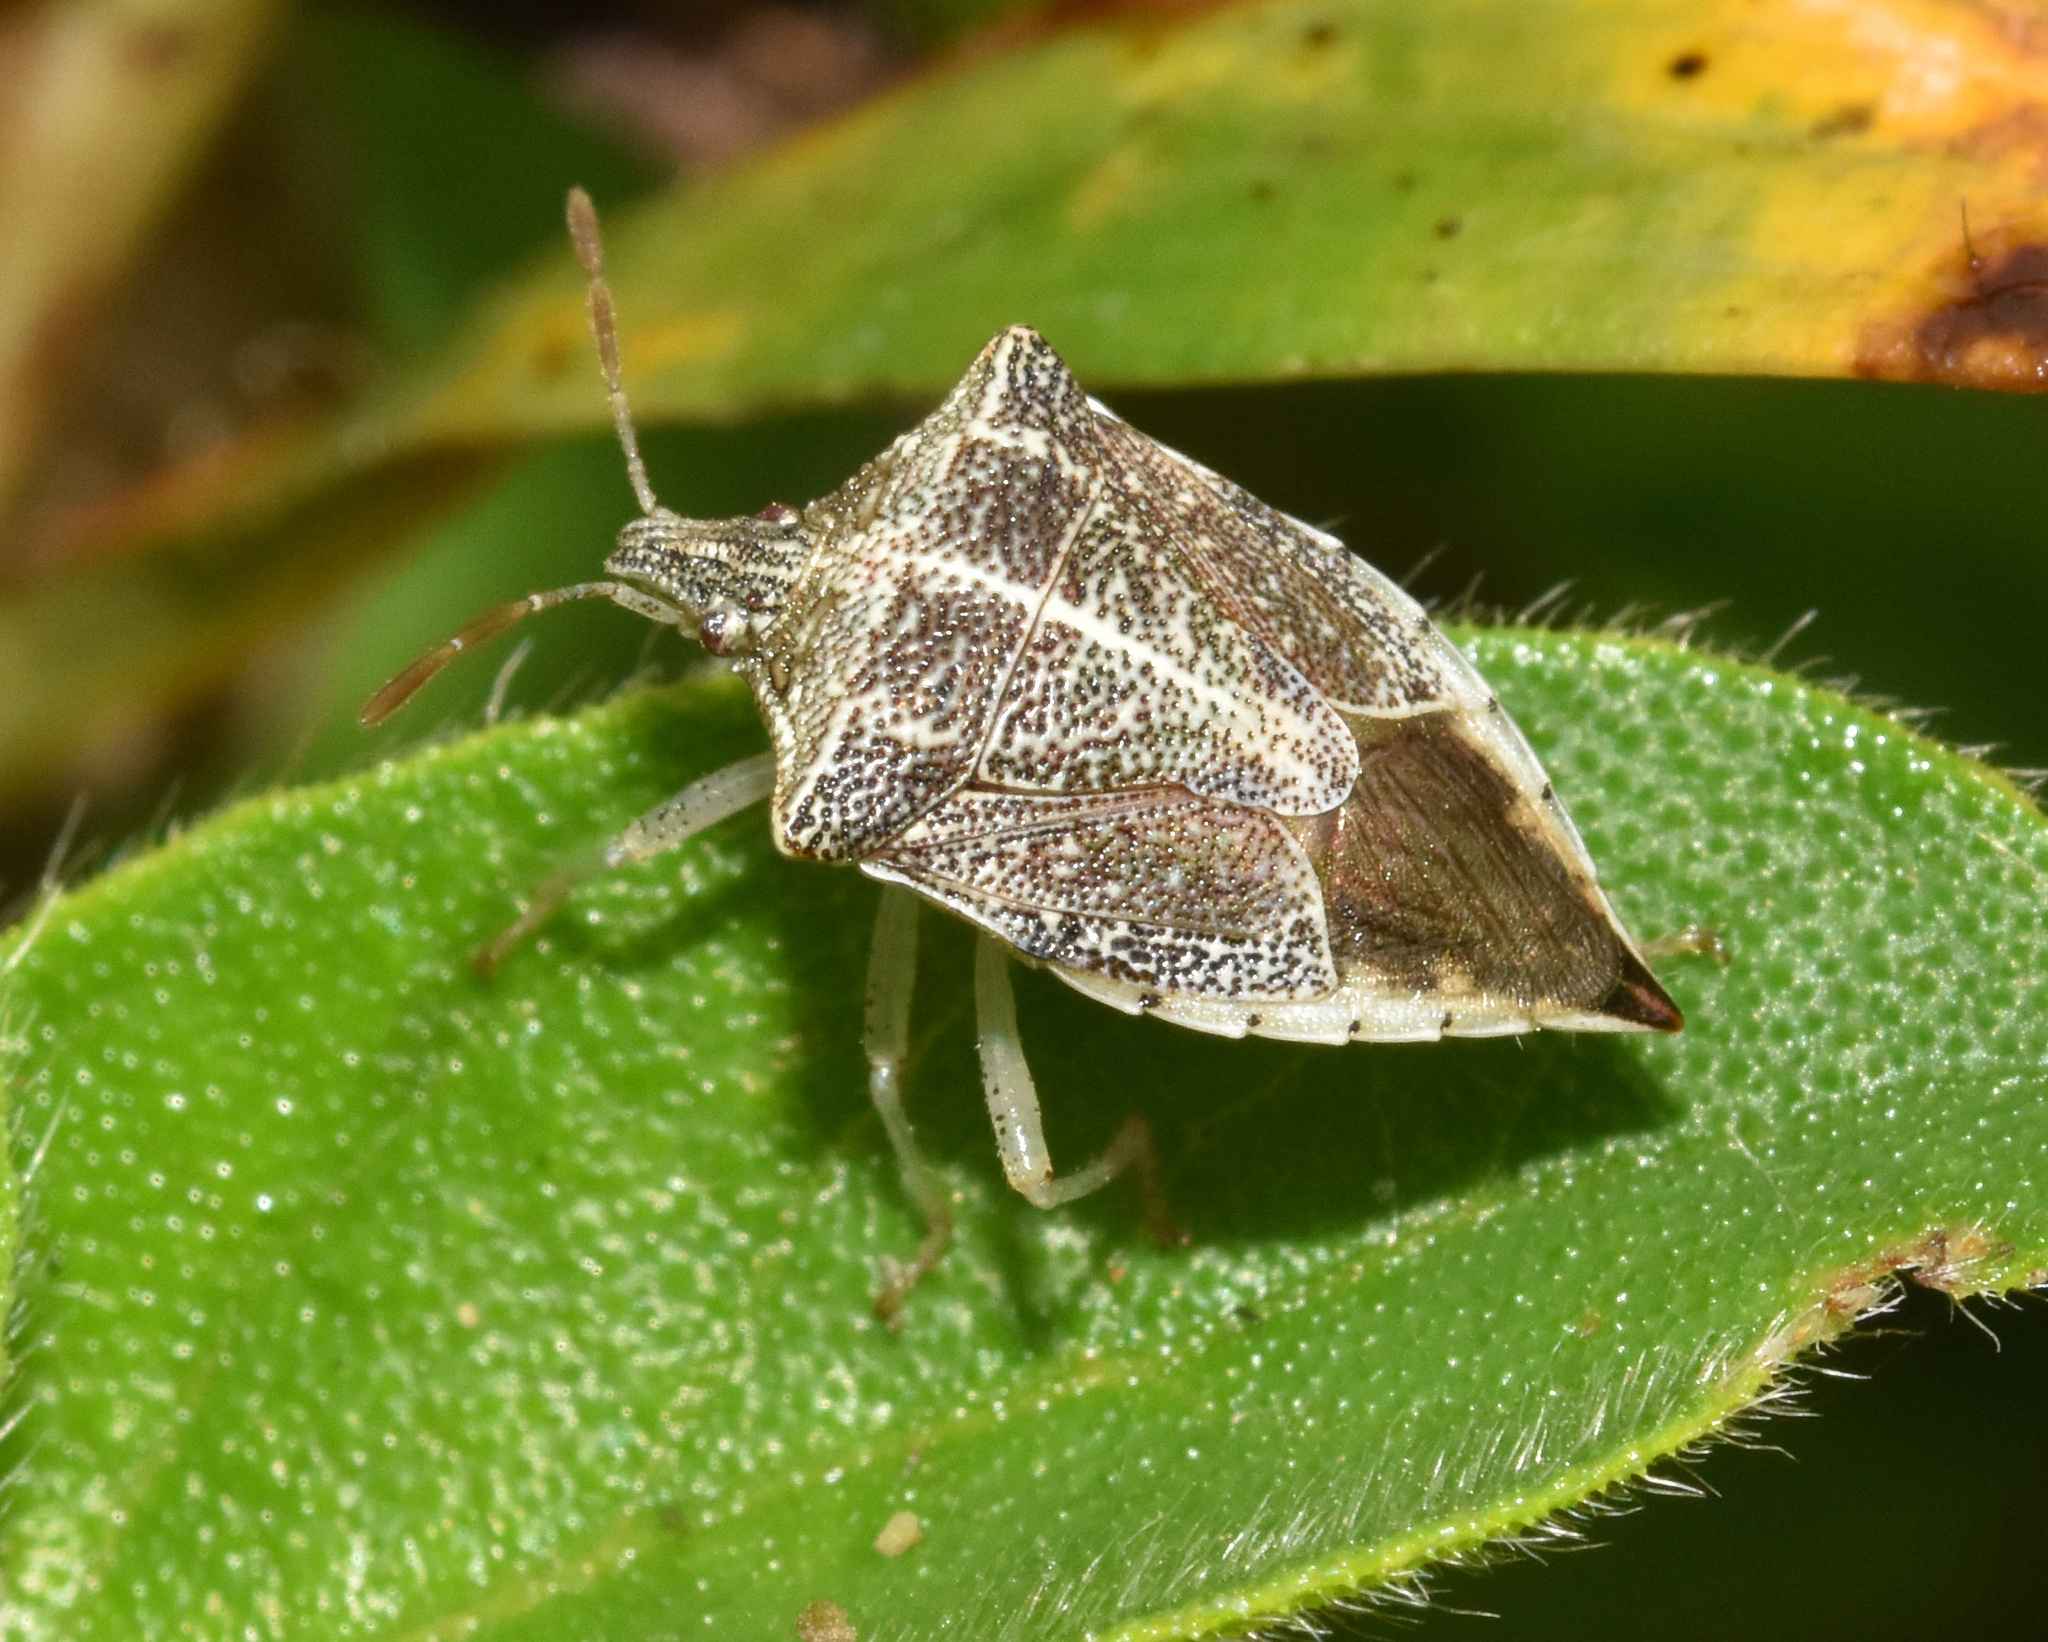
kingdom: Animalia
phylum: Arthropoda
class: Insecta
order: Hemiptera
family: Pentatomidae
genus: Umgababa
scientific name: Umgababa
